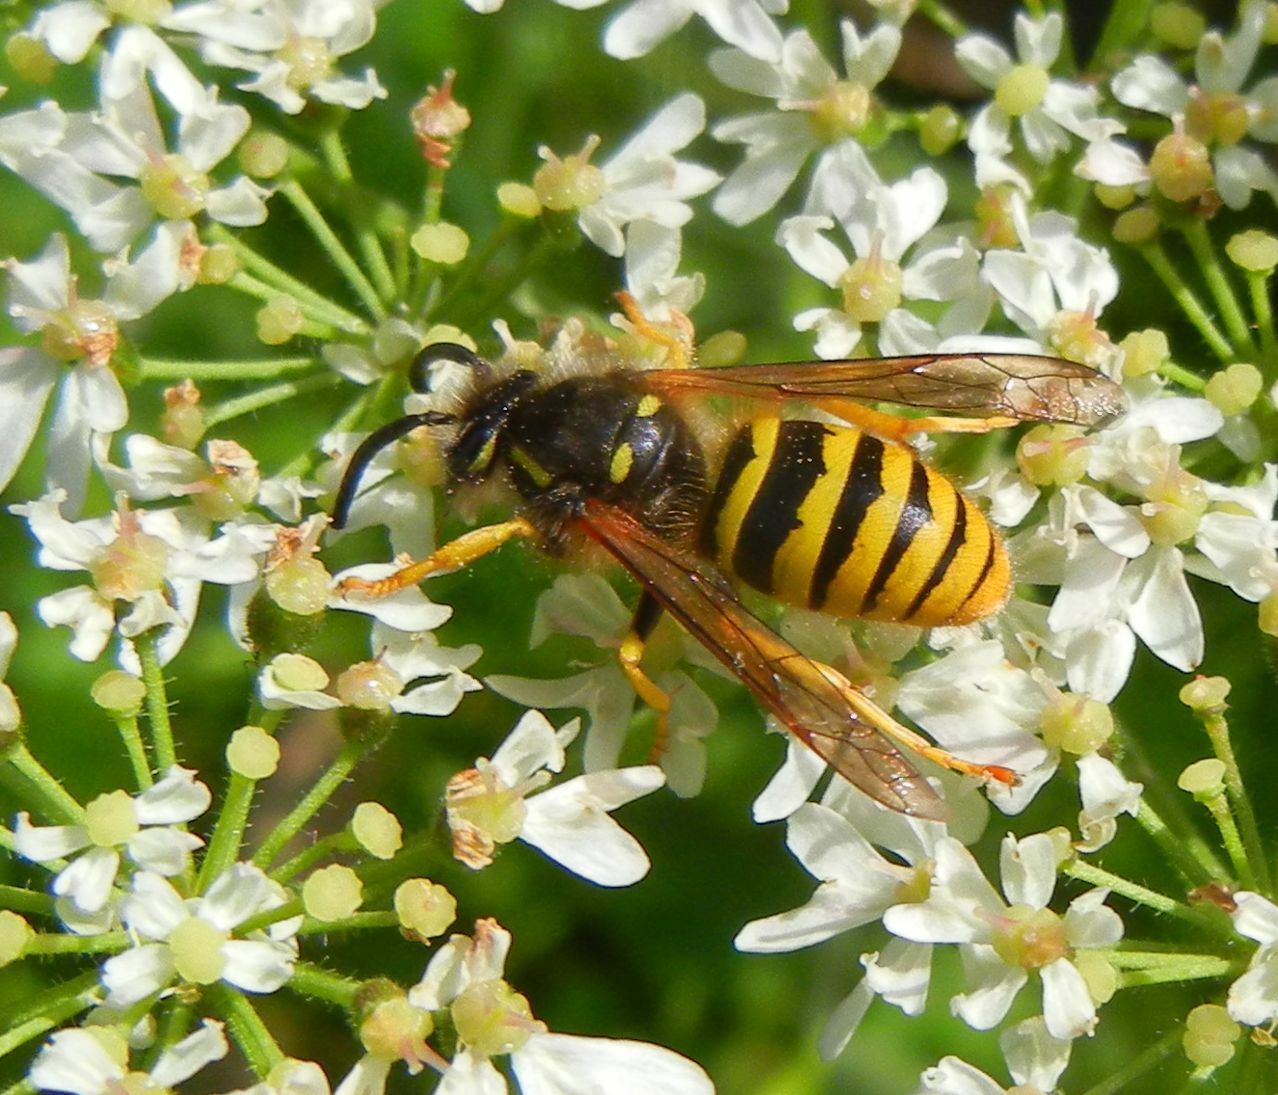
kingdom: Animalia
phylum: Arthropoda
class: Insecta
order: Hymenoptera
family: Vespidae
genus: Dolichovespula
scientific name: Dolichovespula sylvestris
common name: Tree wasp
